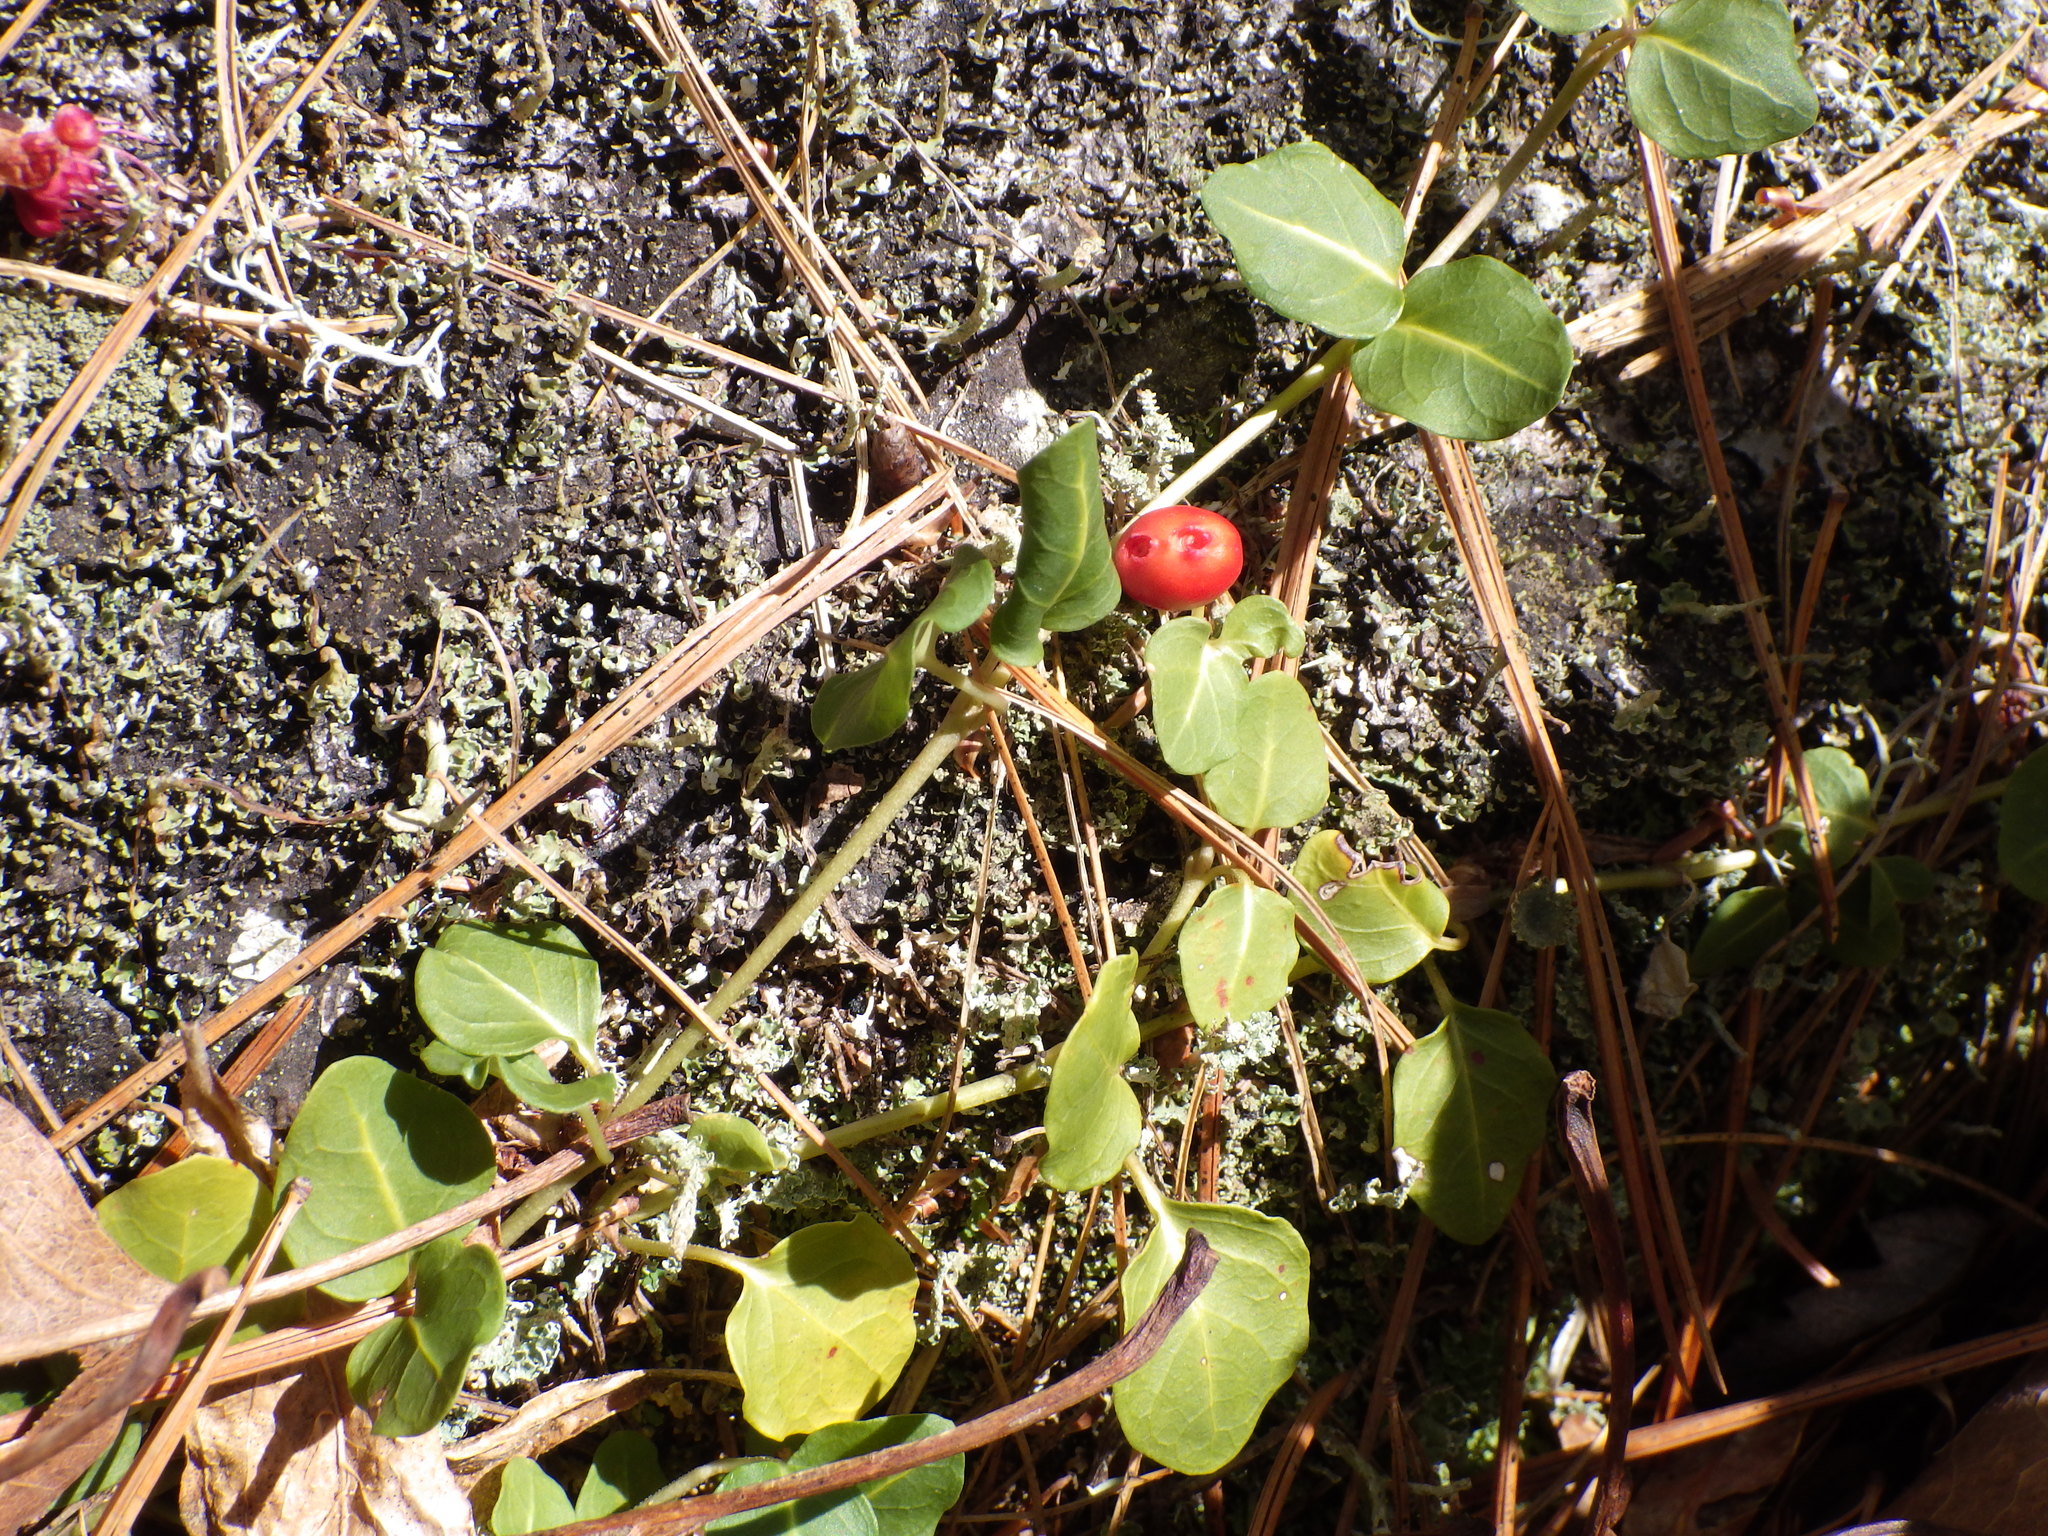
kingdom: Plantae
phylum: Tracheophyta
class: Magnoliopsida
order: Gentianales
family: Rubiaceae
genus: Mitchella
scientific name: Mitchella repens
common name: Partridge-berry
